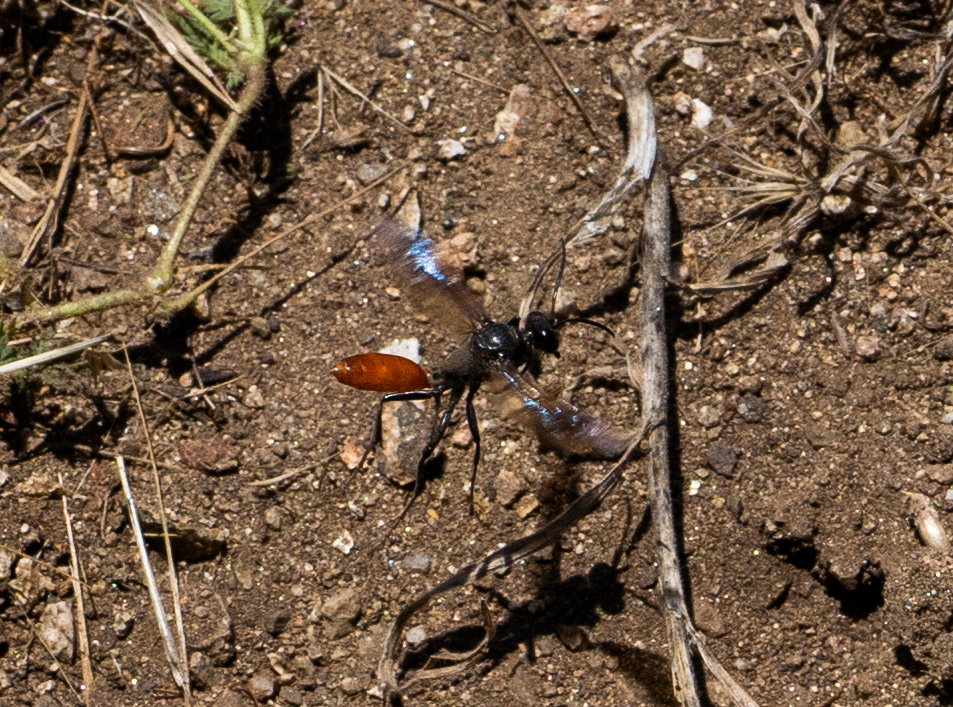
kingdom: Animalia
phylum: Arthropoda
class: Insecta
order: Hymenoptera
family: Sphecidae
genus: Sphex
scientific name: Sphex lucae
